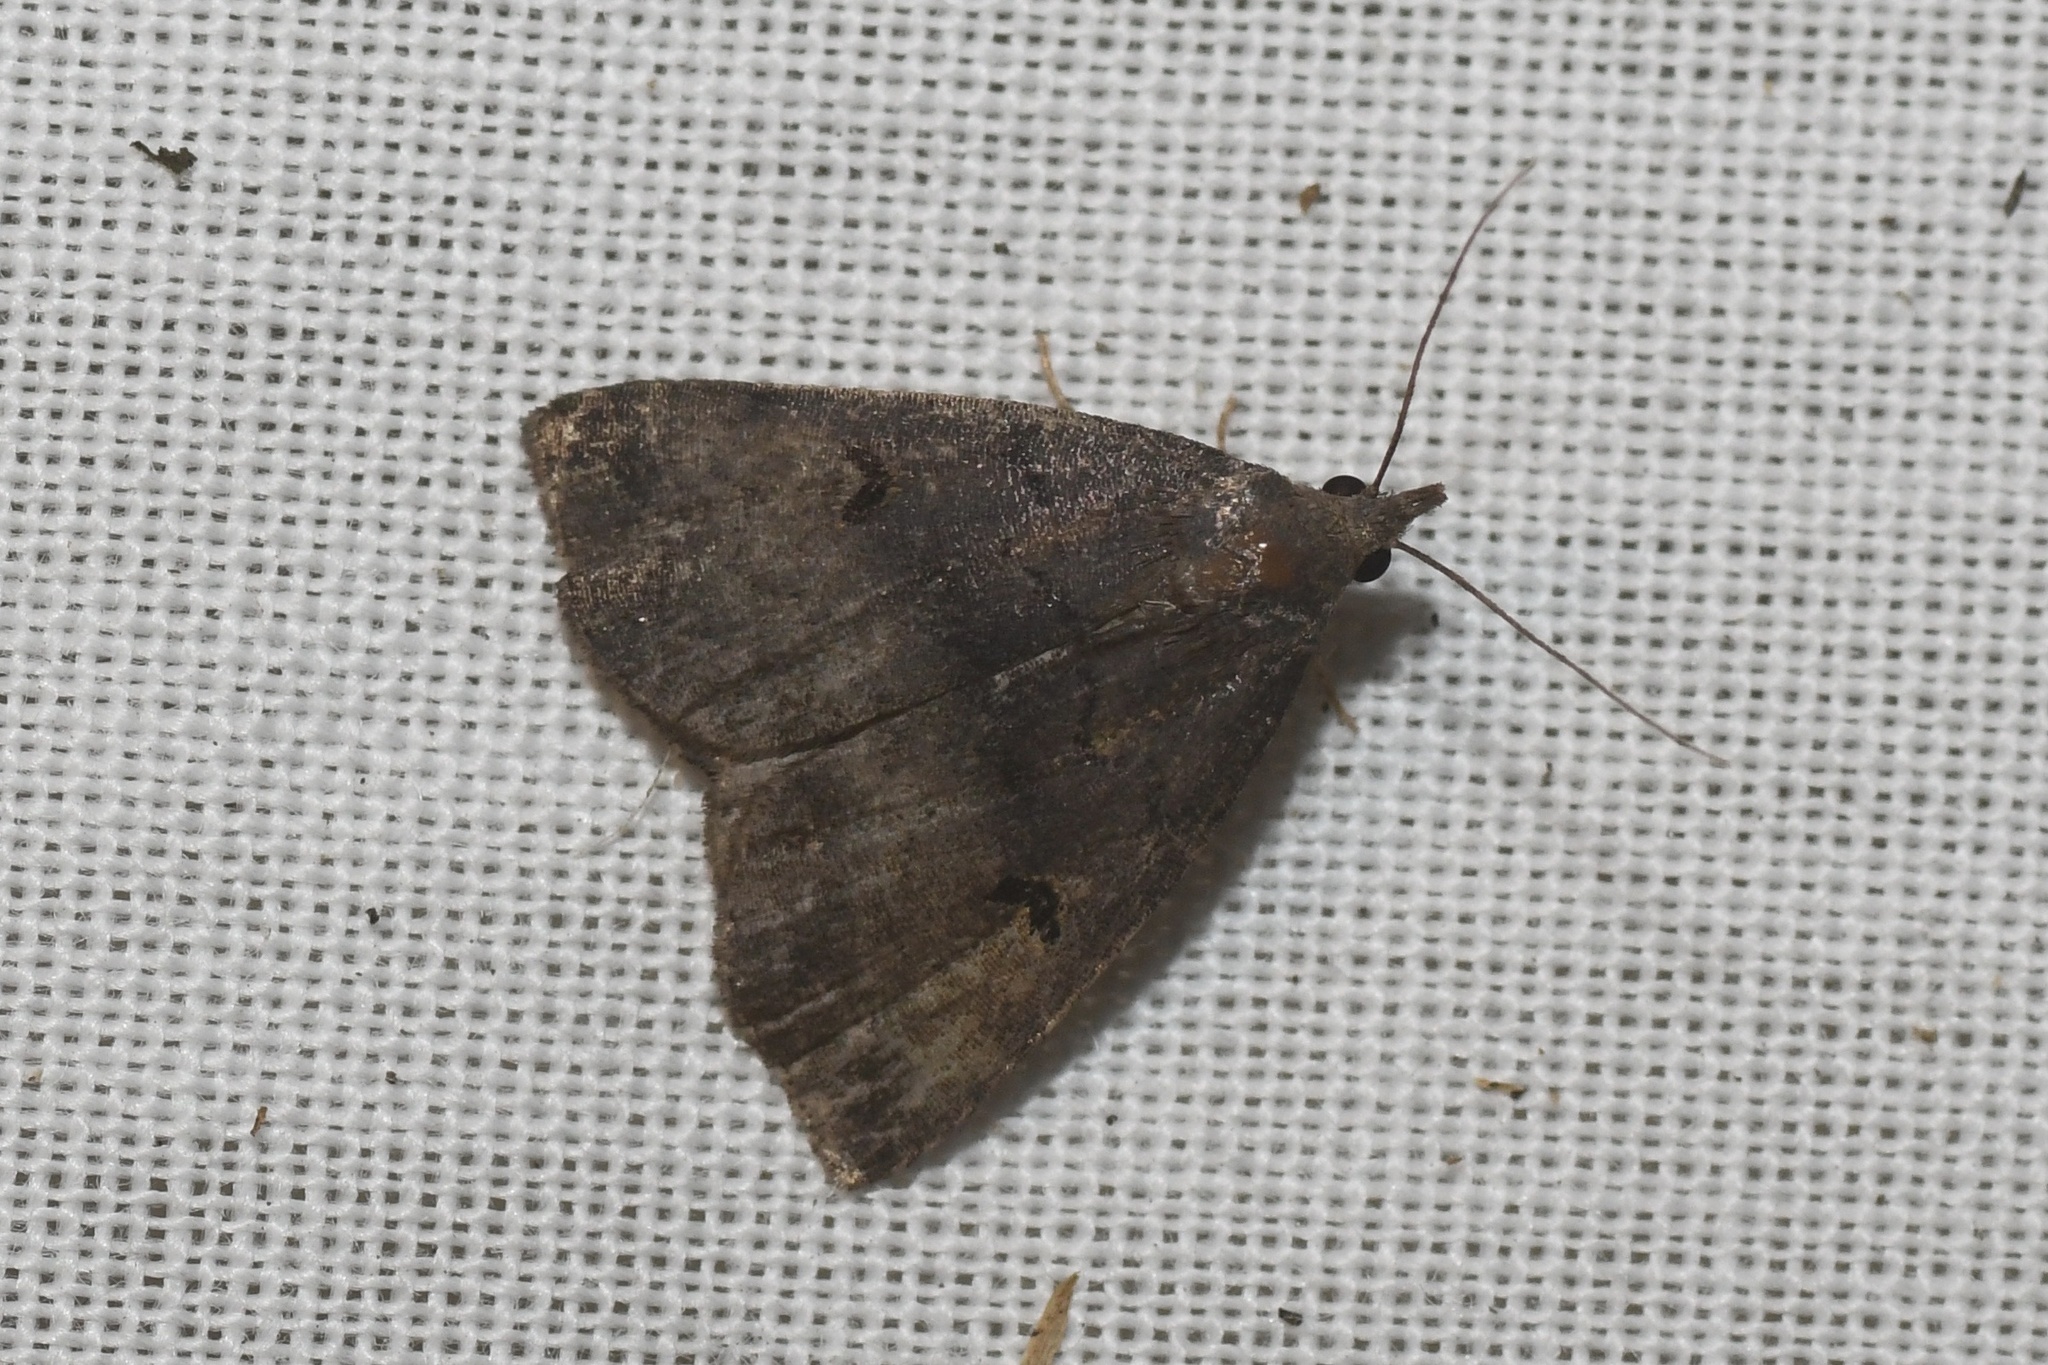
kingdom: Animalia
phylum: Arthropoda
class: Insecta
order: Lepidoptera
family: Erebidae
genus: Phalaenostola
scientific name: Phalaenostola hanhami
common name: Hanham's owlet
